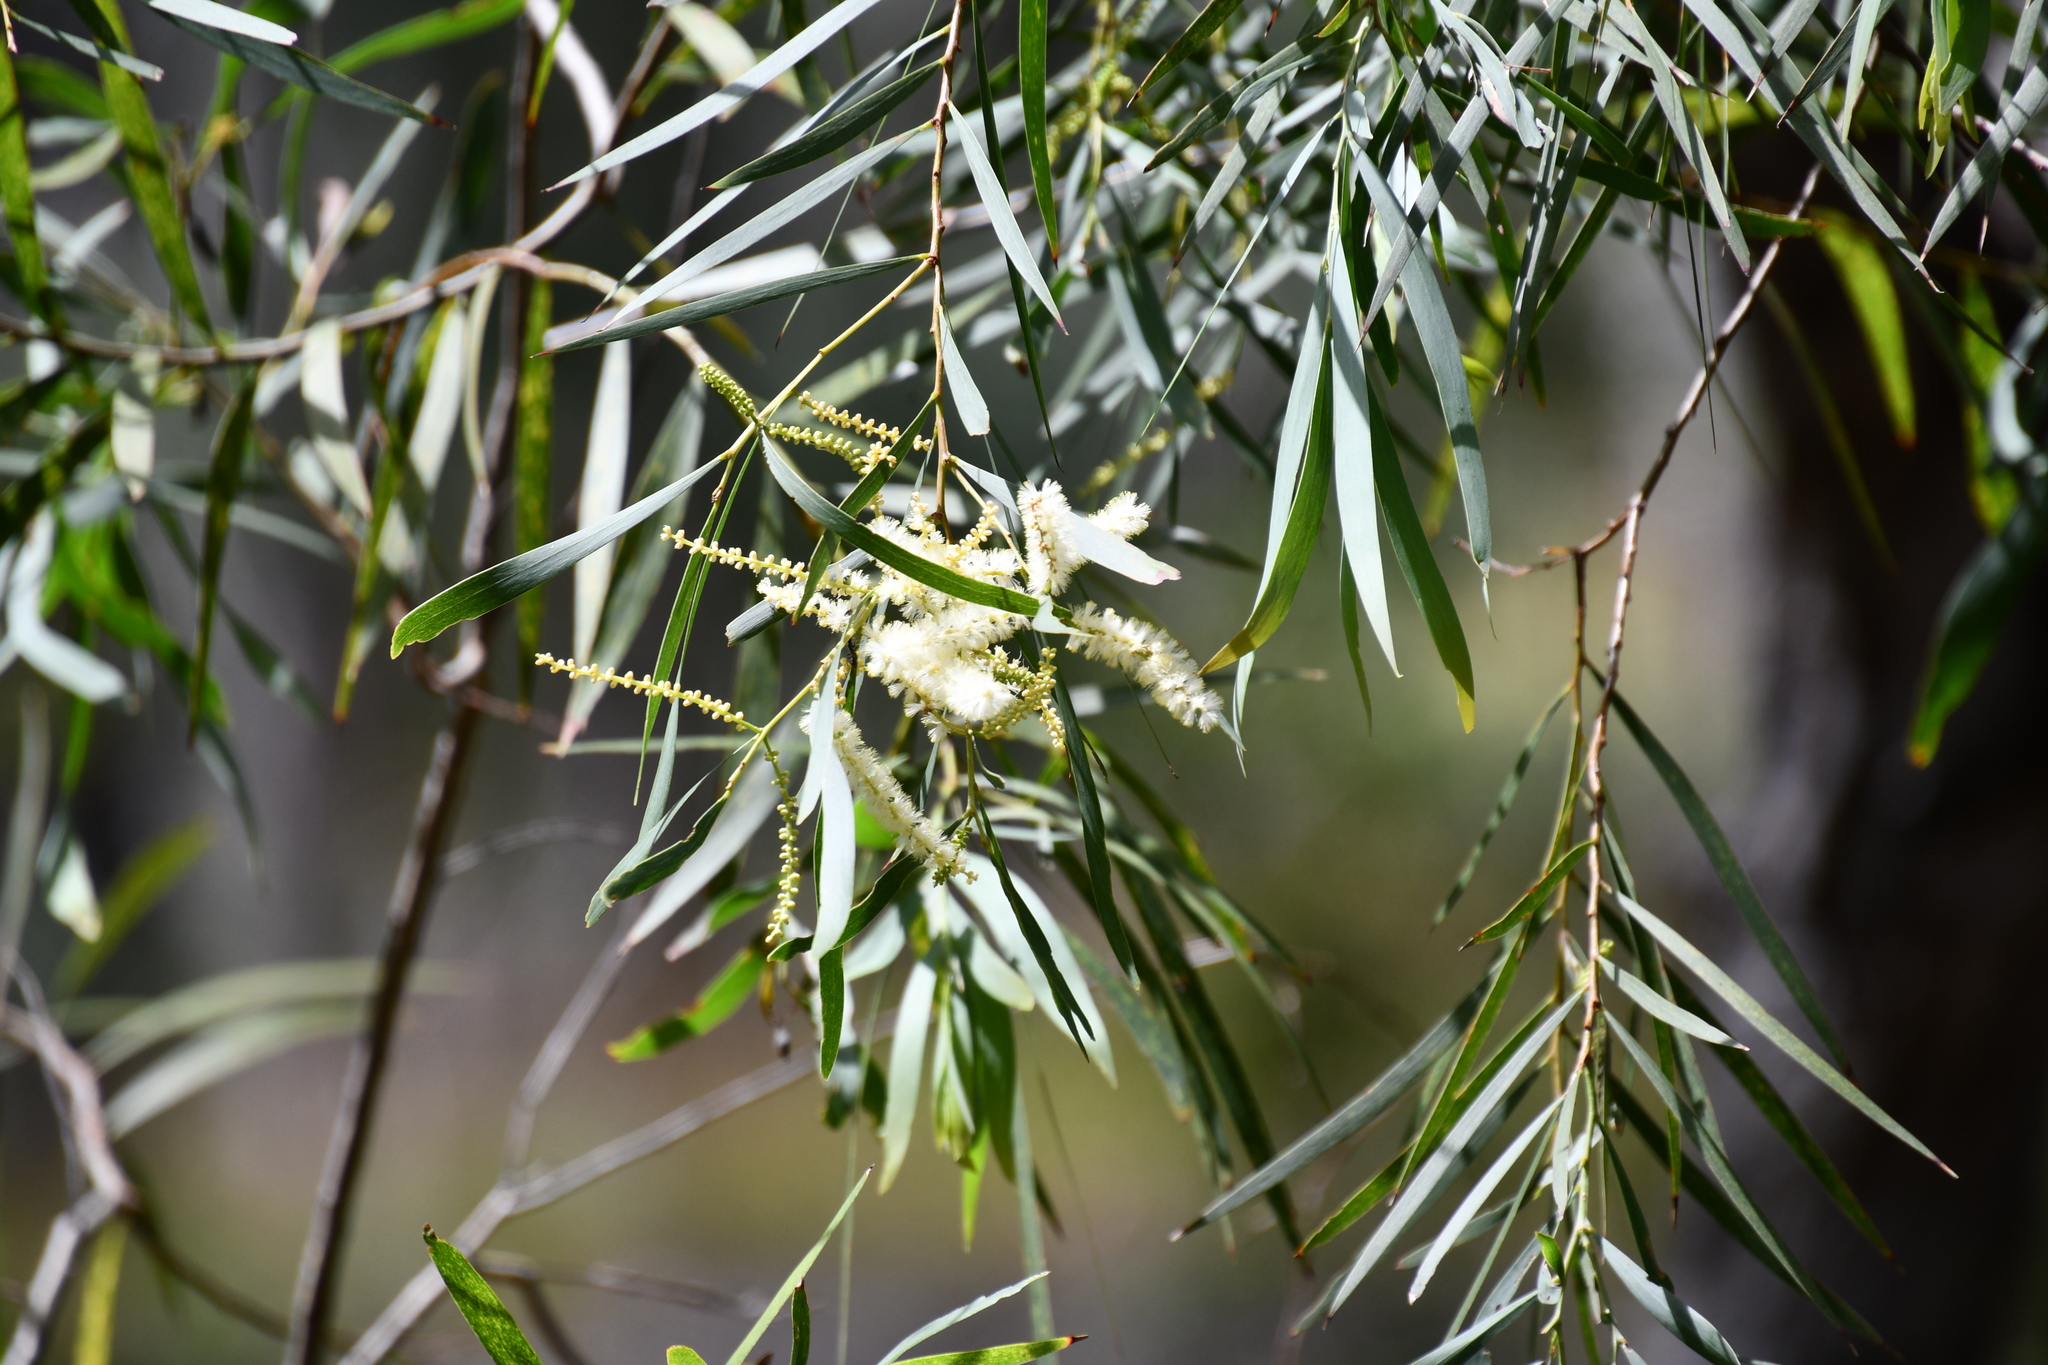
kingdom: Plantae
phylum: Tracheophyta
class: Magnoliopsida
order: Fabales
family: Fabaceae
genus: Acacia
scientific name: Acacia courtii
